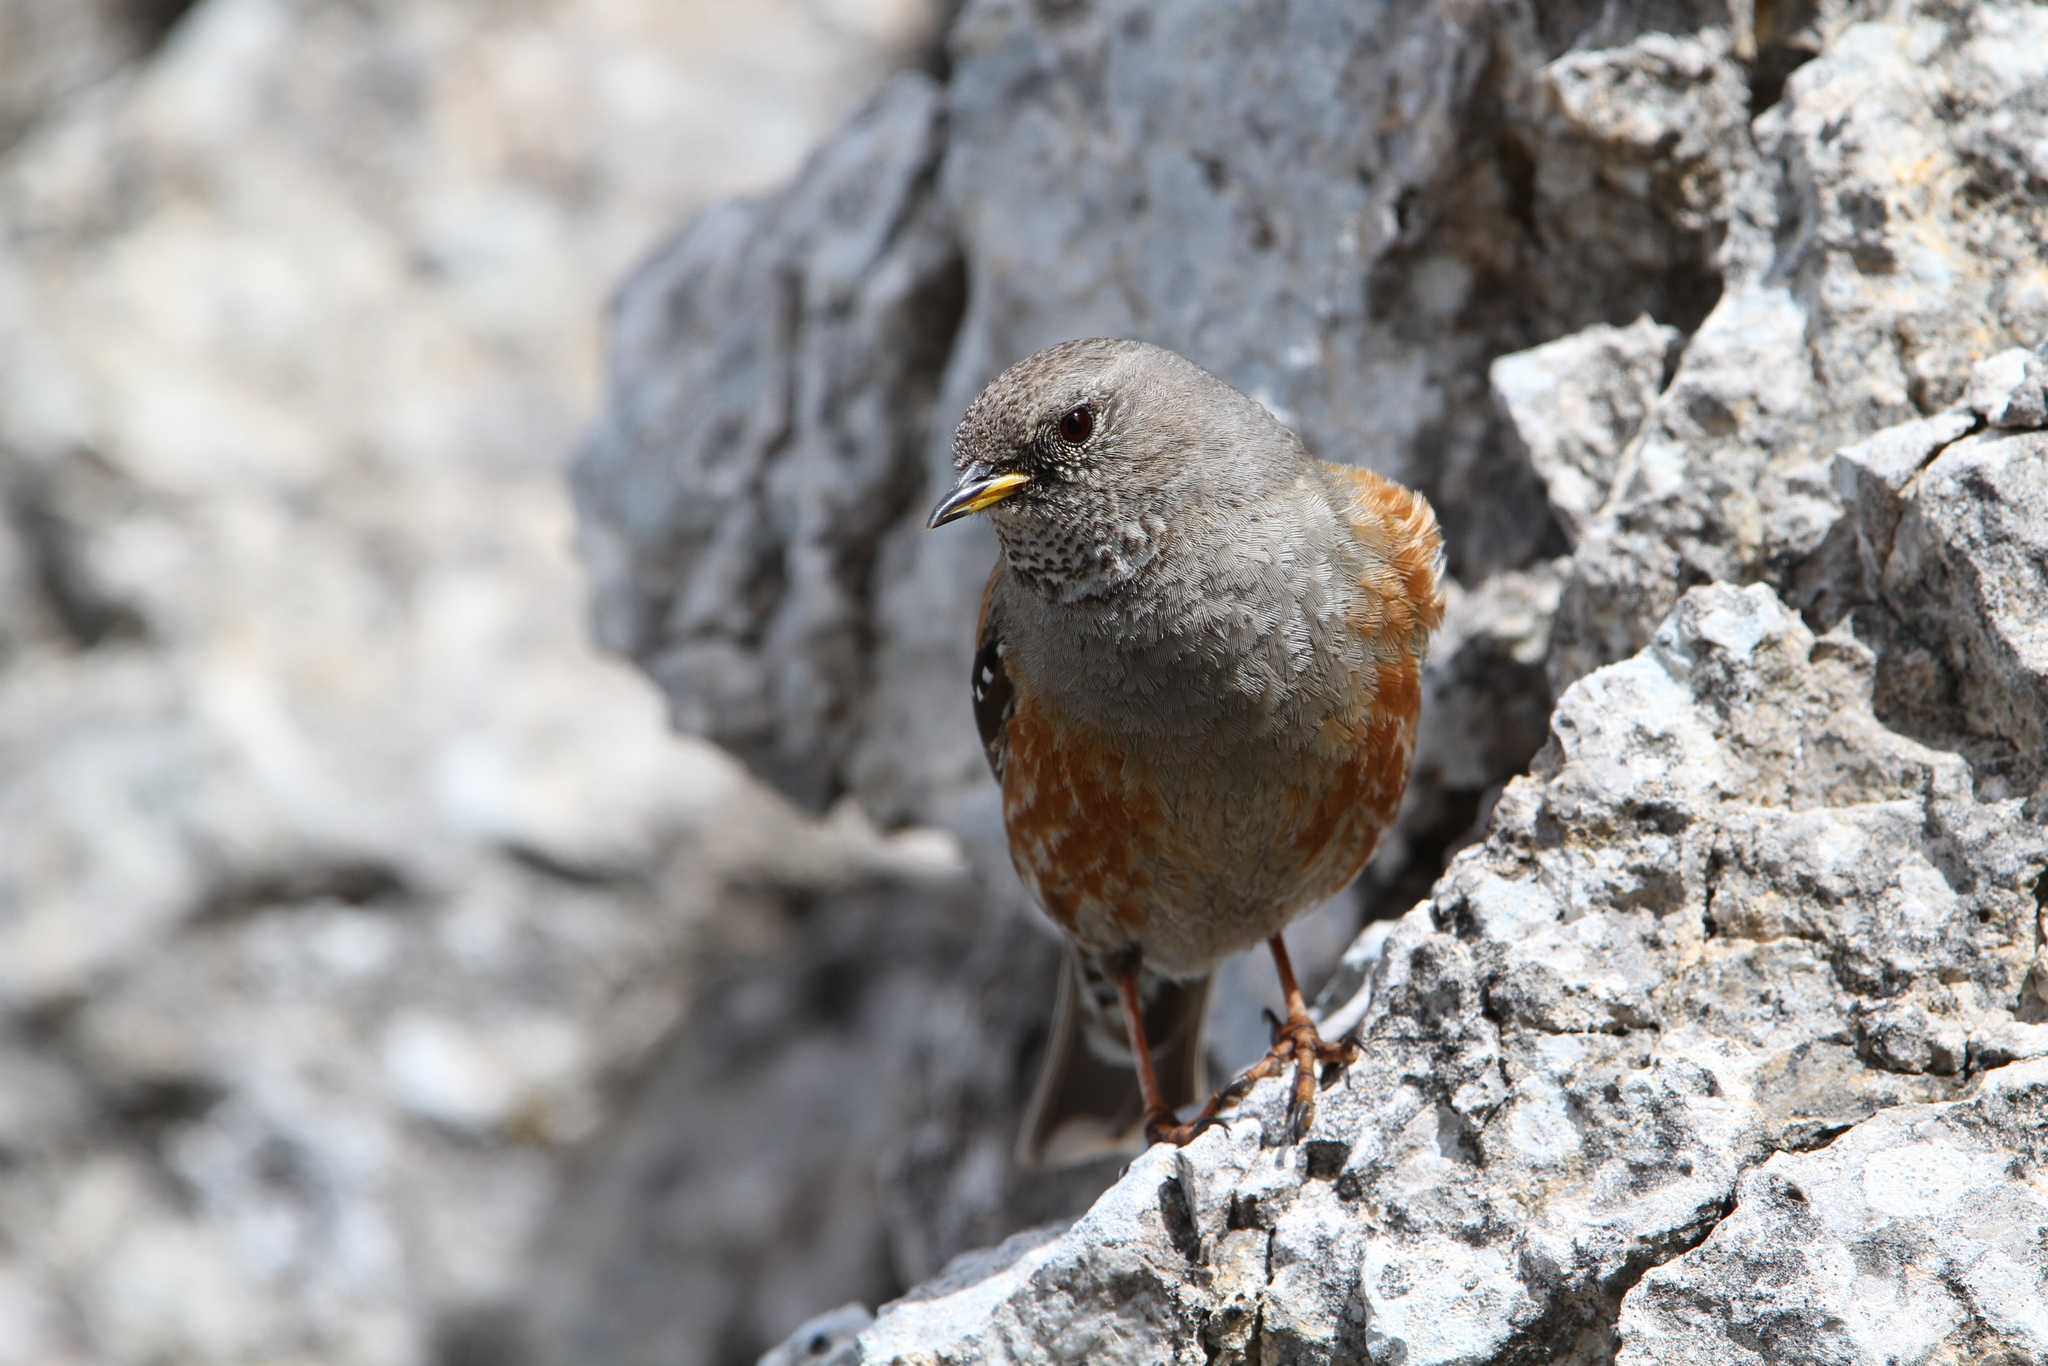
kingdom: Animalia
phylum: Chordata
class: Aves
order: Passeriformes
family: Prunellidae
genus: Prunella
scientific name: Prunella collaris
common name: Alpine accentor
